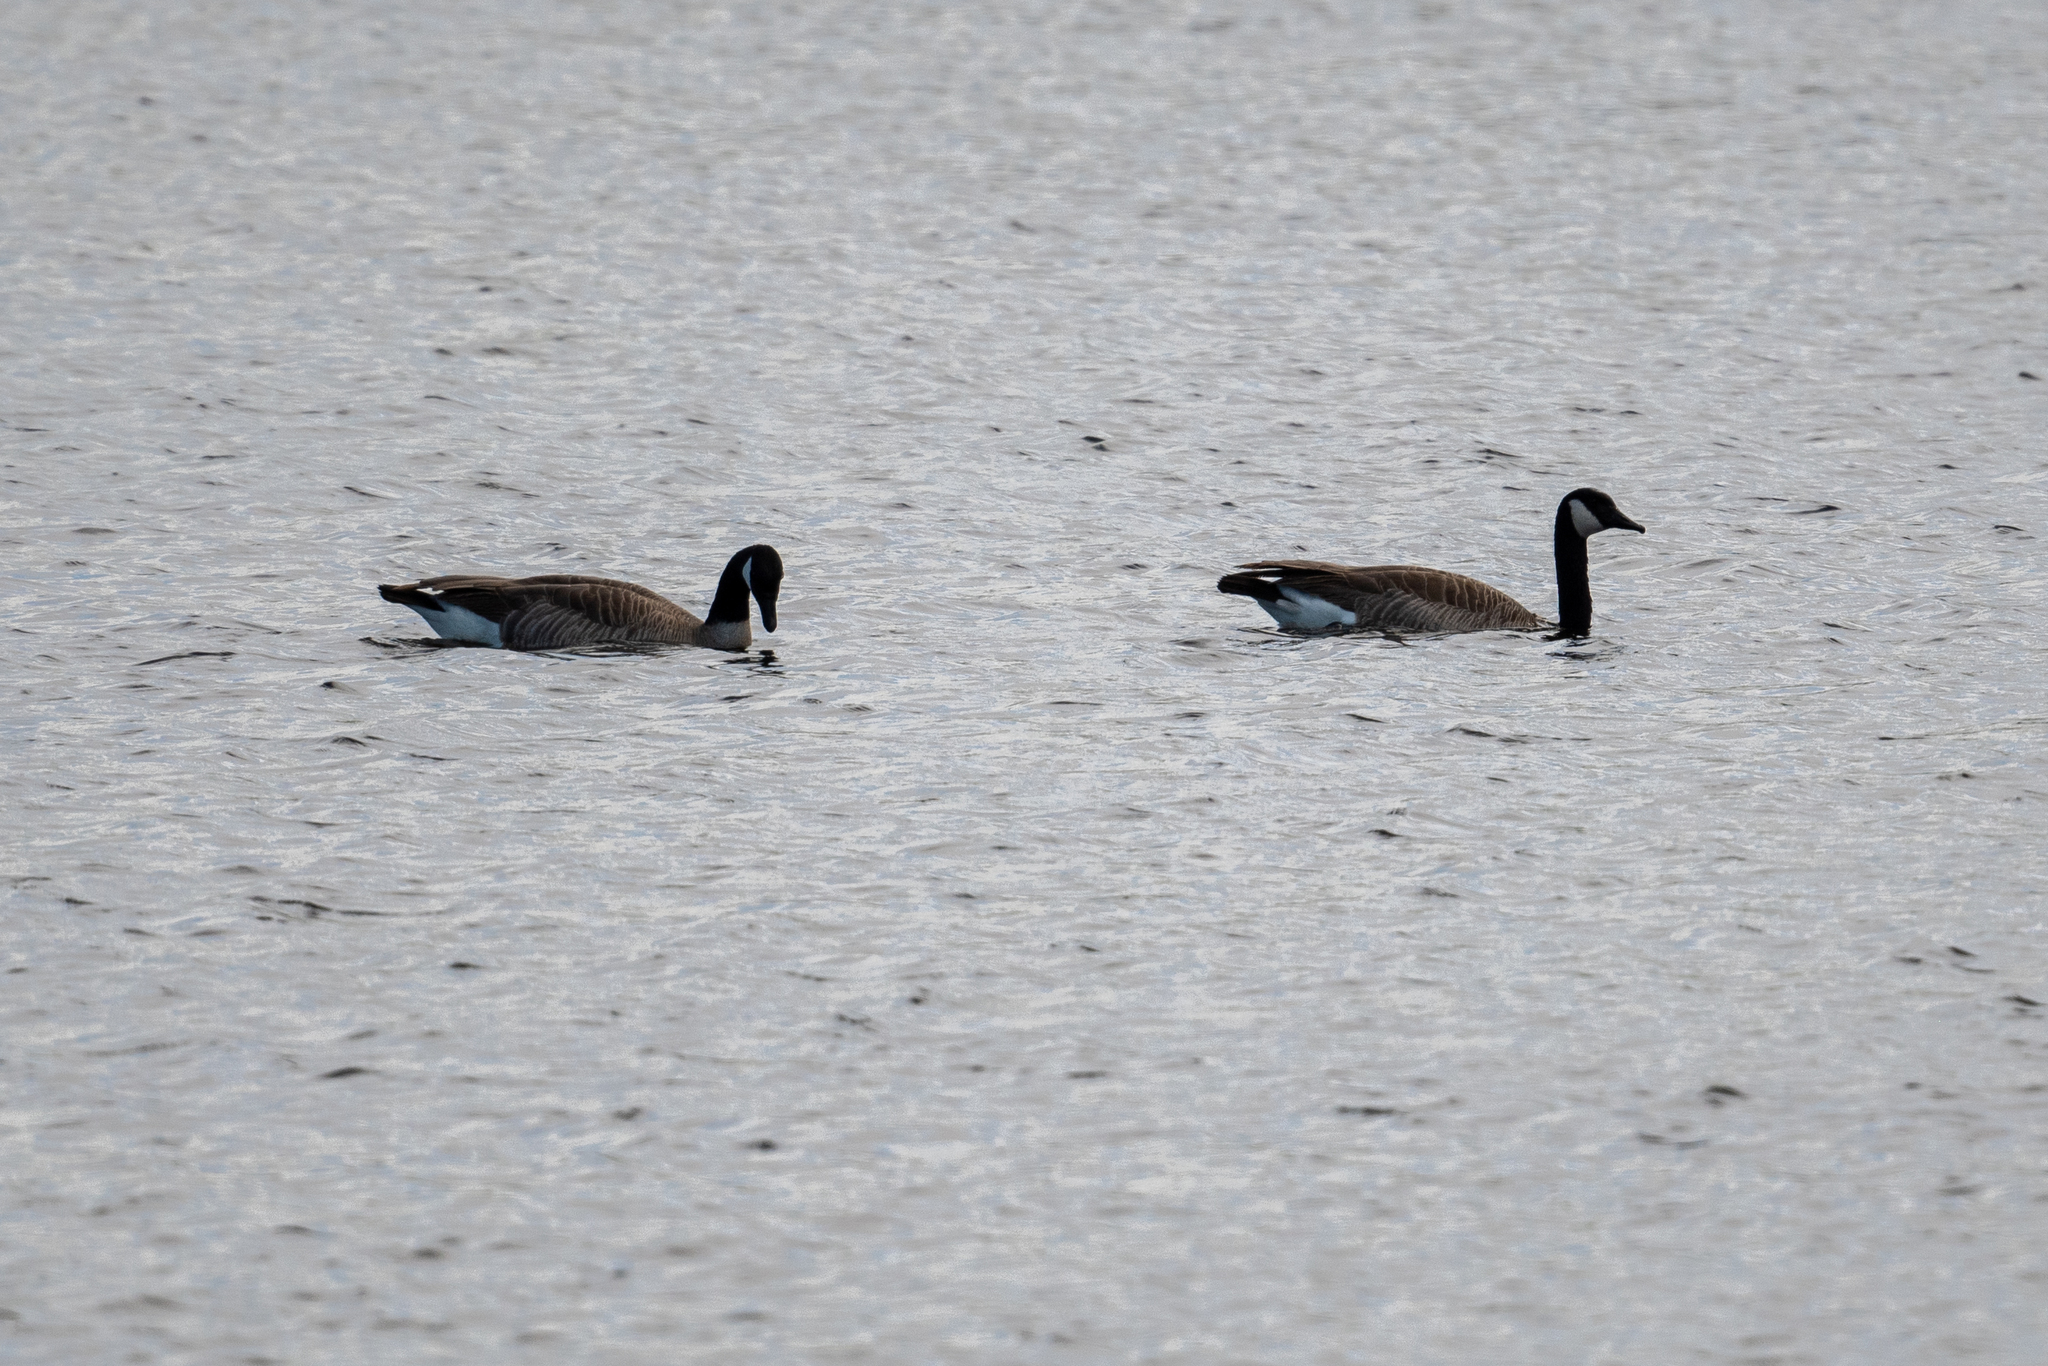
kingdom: Animalia
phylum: Chordata
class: Aves
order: Anseriformes
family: Anatidae
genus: Branta
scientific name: Branta canadensis
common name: Canada goose
